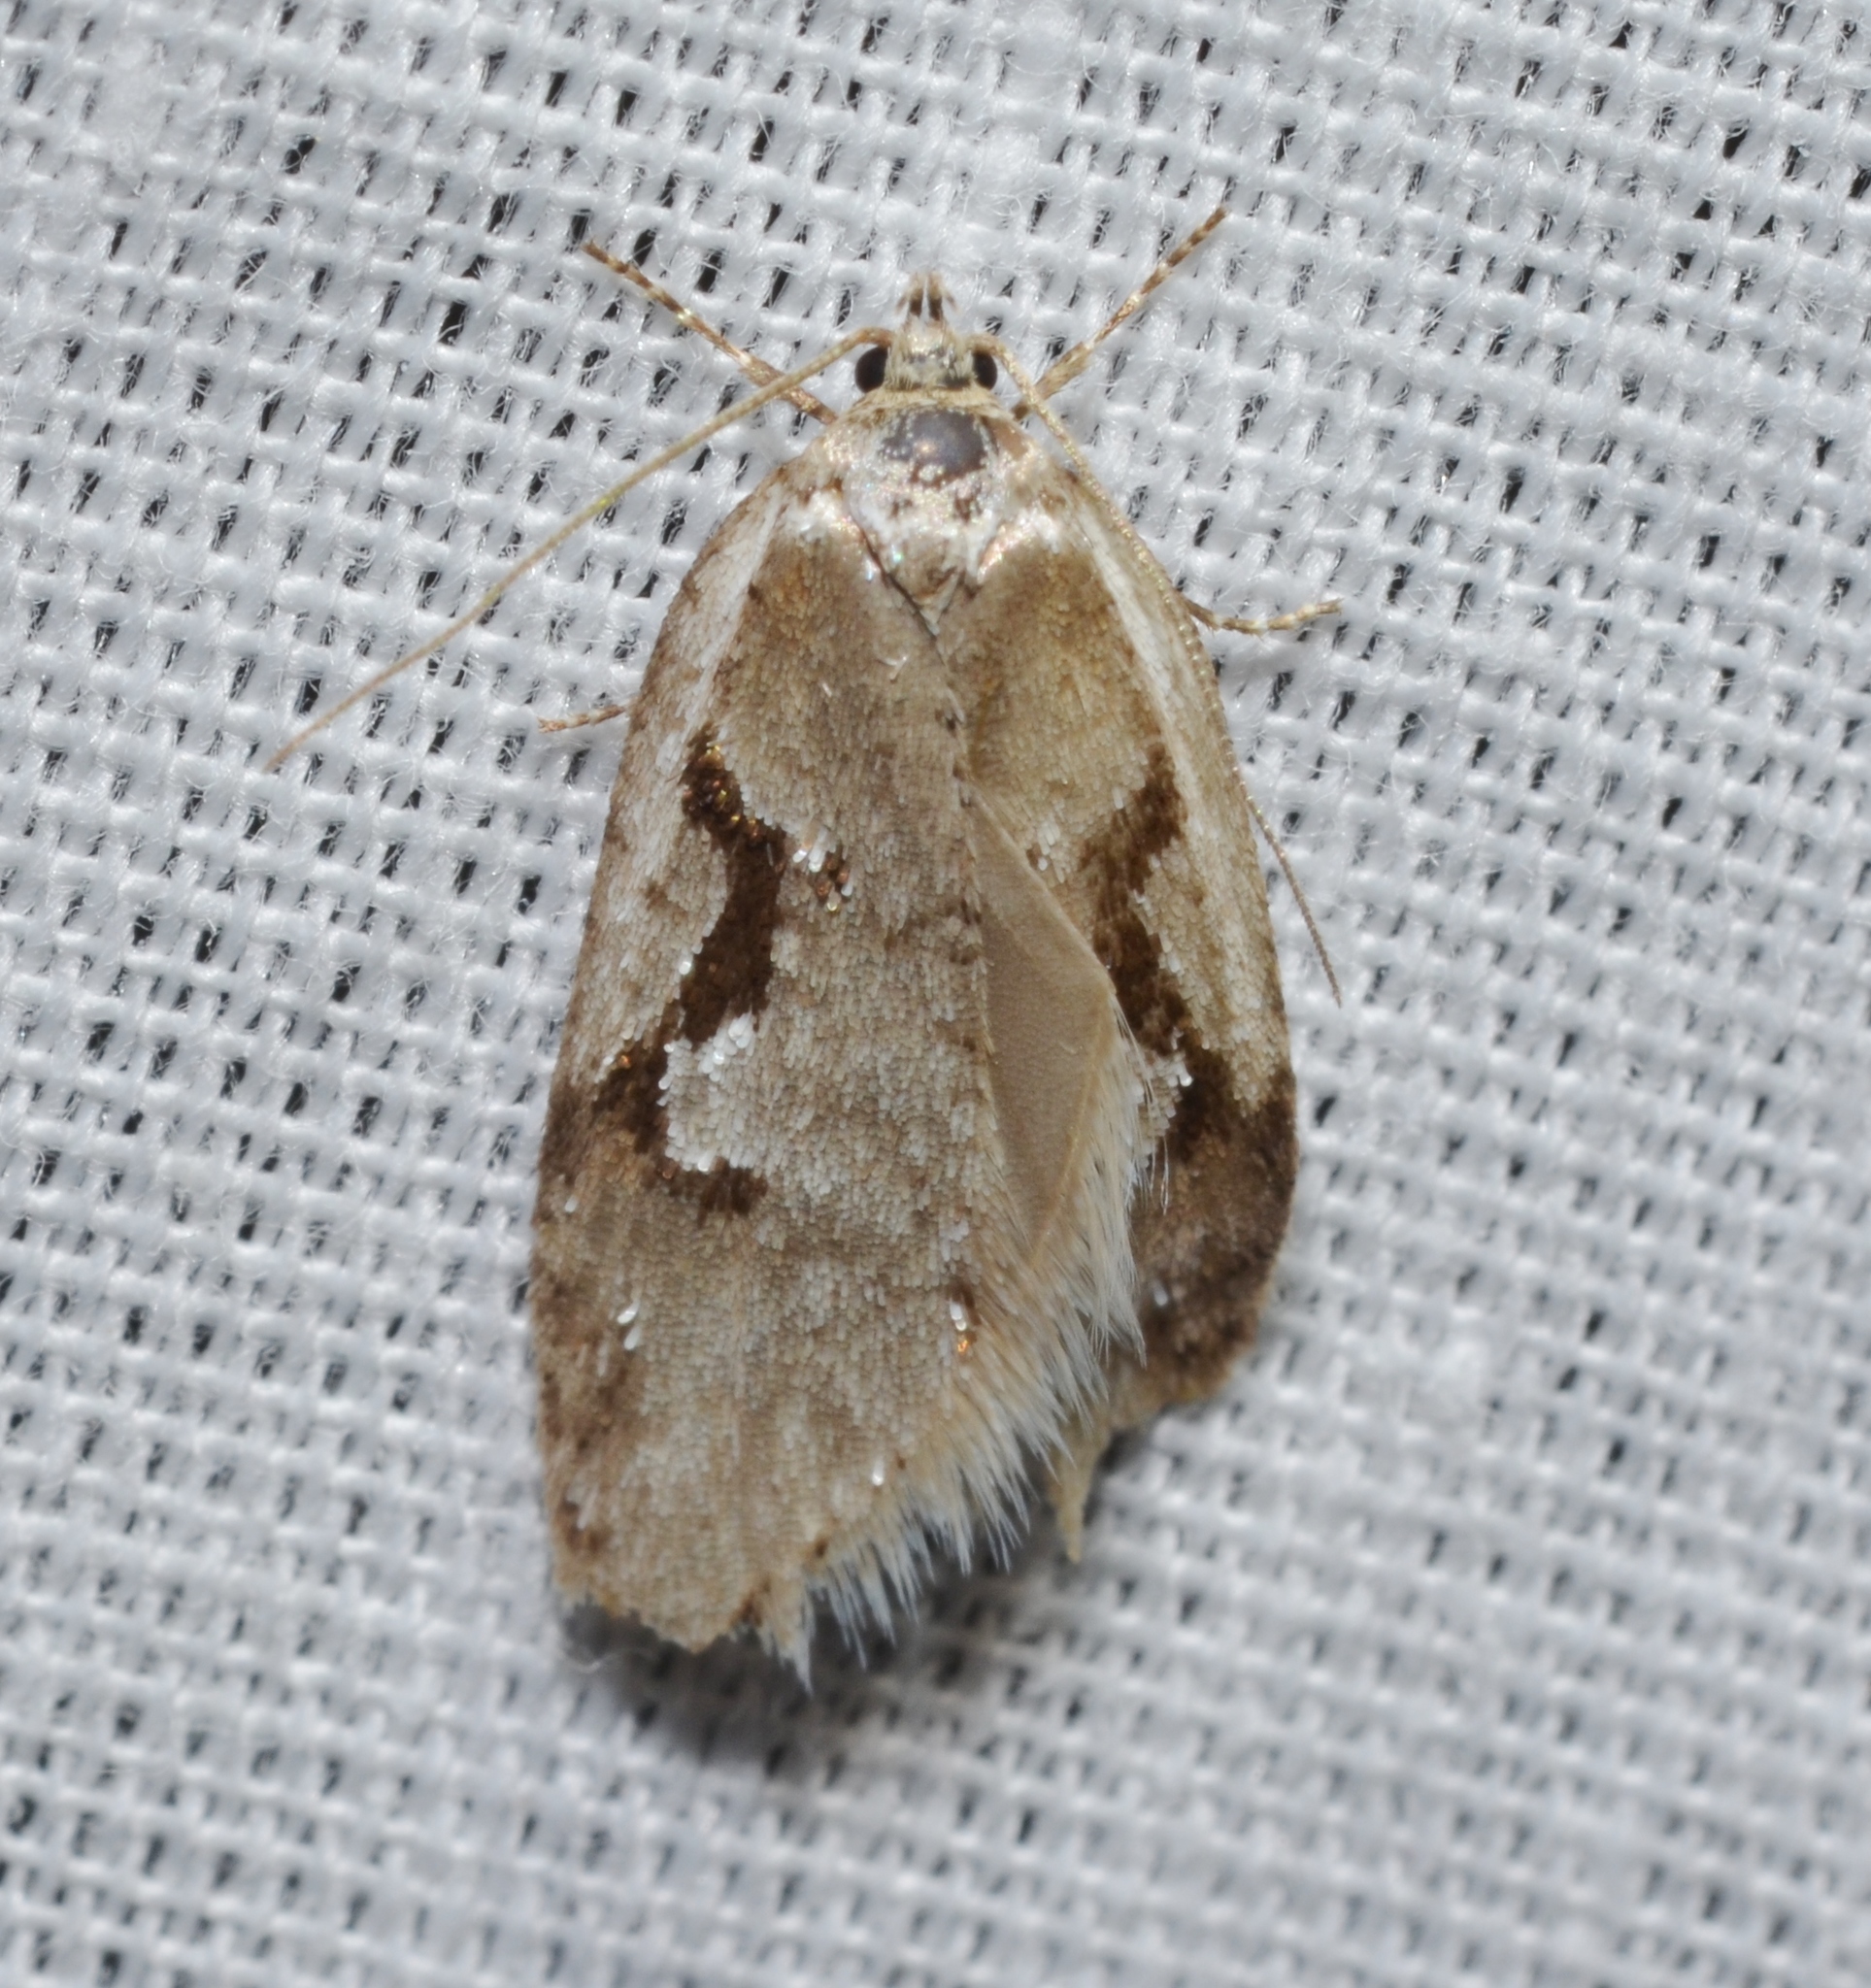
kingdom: Animalia
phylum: Arthropoda
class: Insecta
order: Lepidoptera
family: Depressariidae
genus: Semioscopis
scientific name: Semioscopis merriccella
